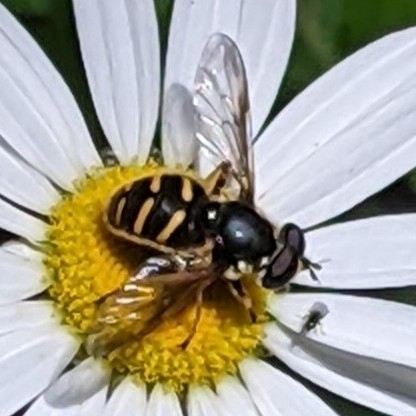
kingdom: Animalia
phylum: Arthropoda
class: Insecta
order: Diptera
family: Syrphidae
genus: Sericomyia
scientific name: Sericomyia chrysotoxoides
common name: Oblique-banded pond fly
